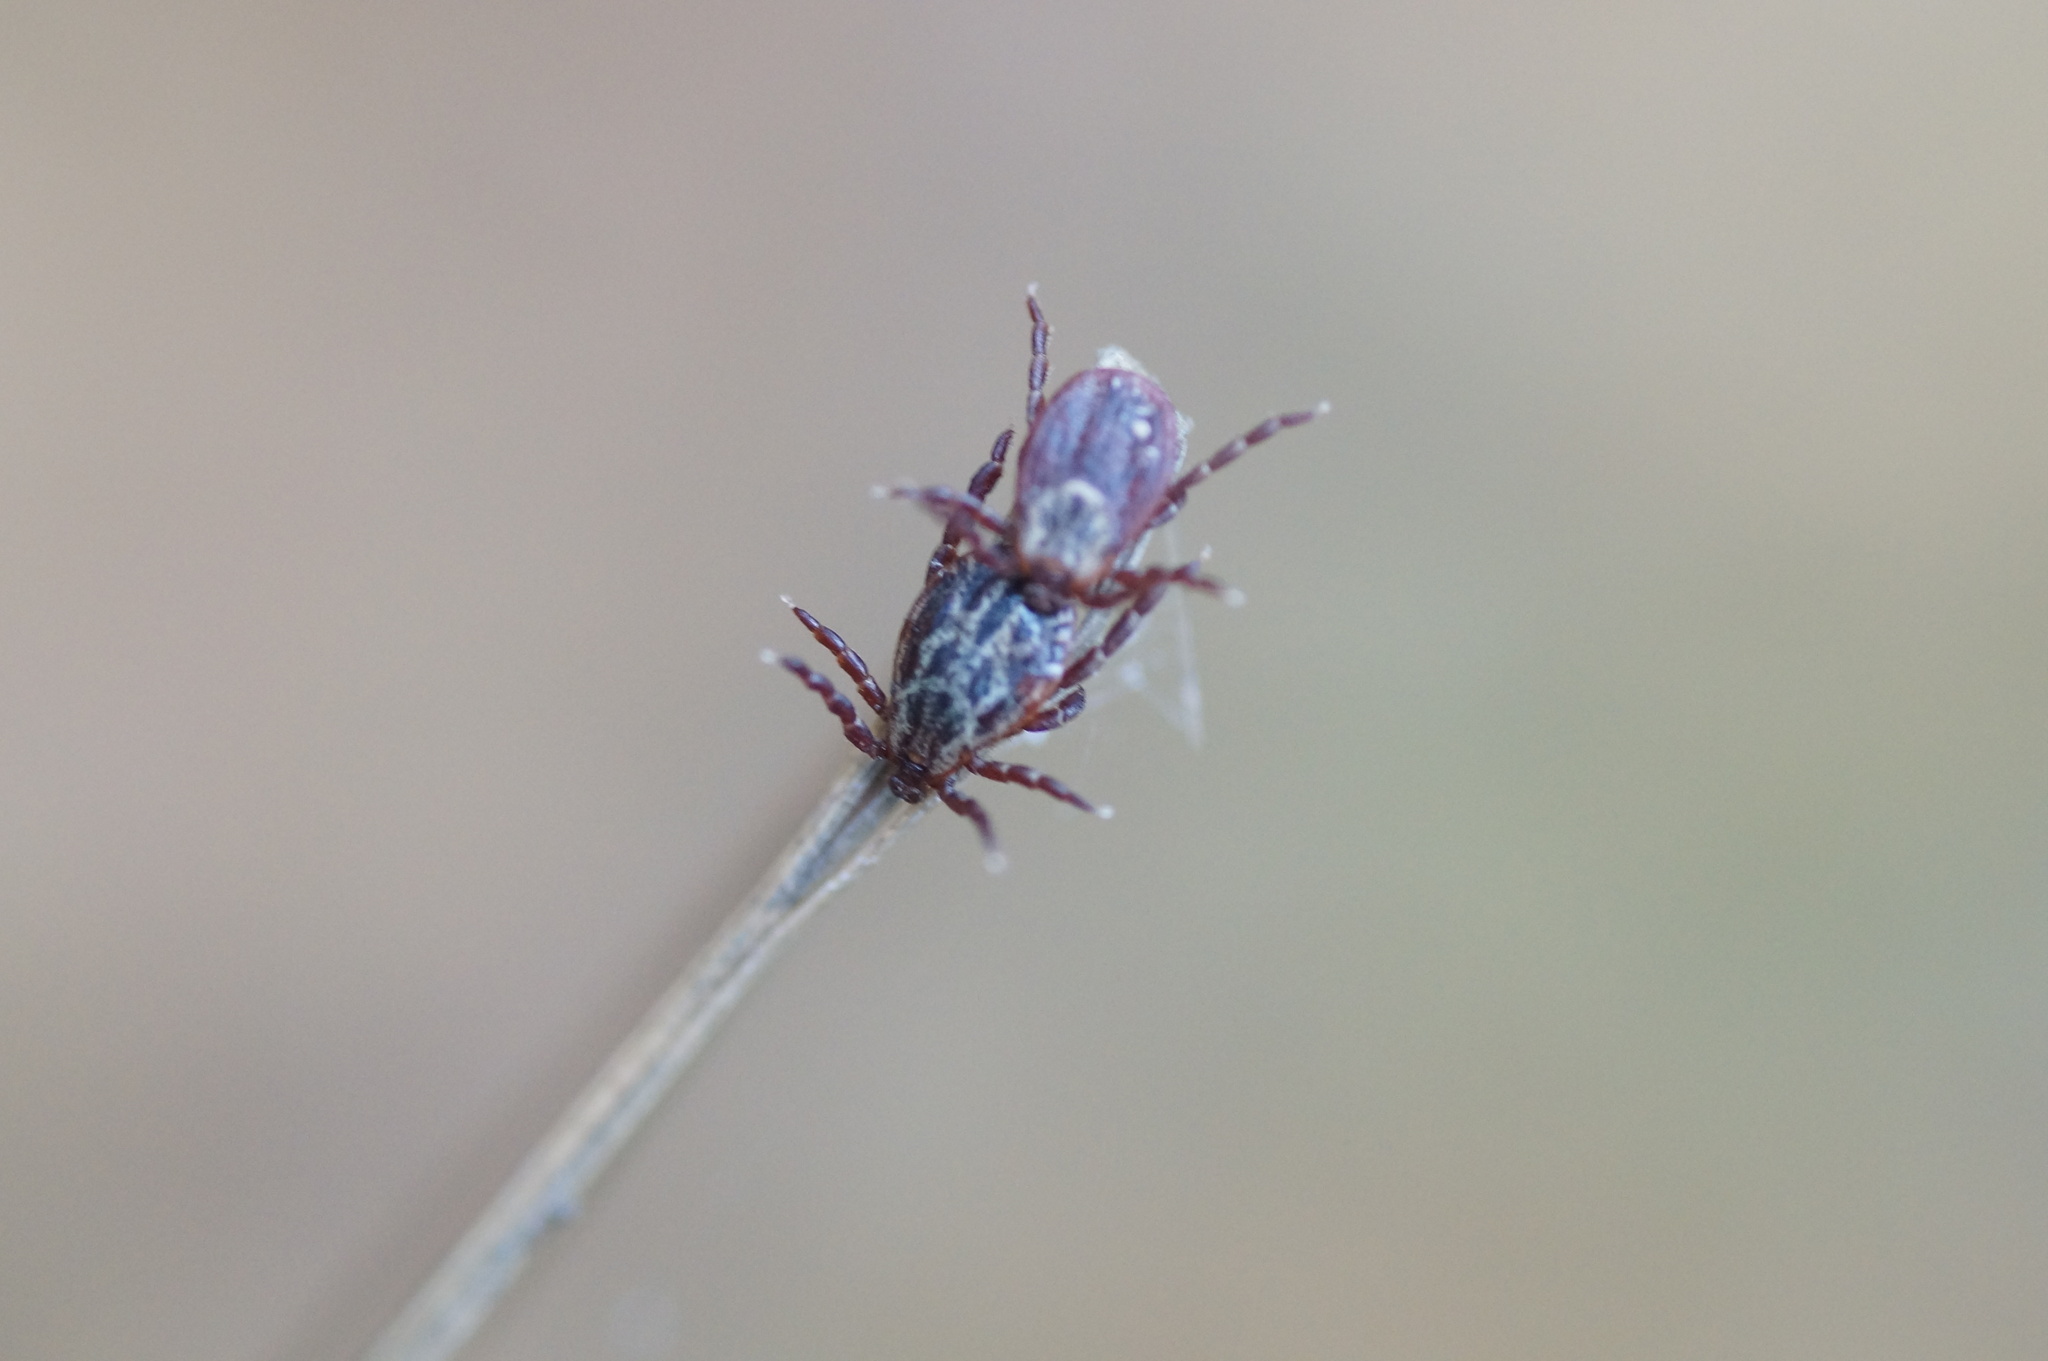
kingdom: Animalia
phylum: Arthropoda
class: Arachnida
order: Ixodida
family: Ixodidae
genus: Dermacentor
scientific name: Dermacentor reticulatus
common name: Ornate cow tick
